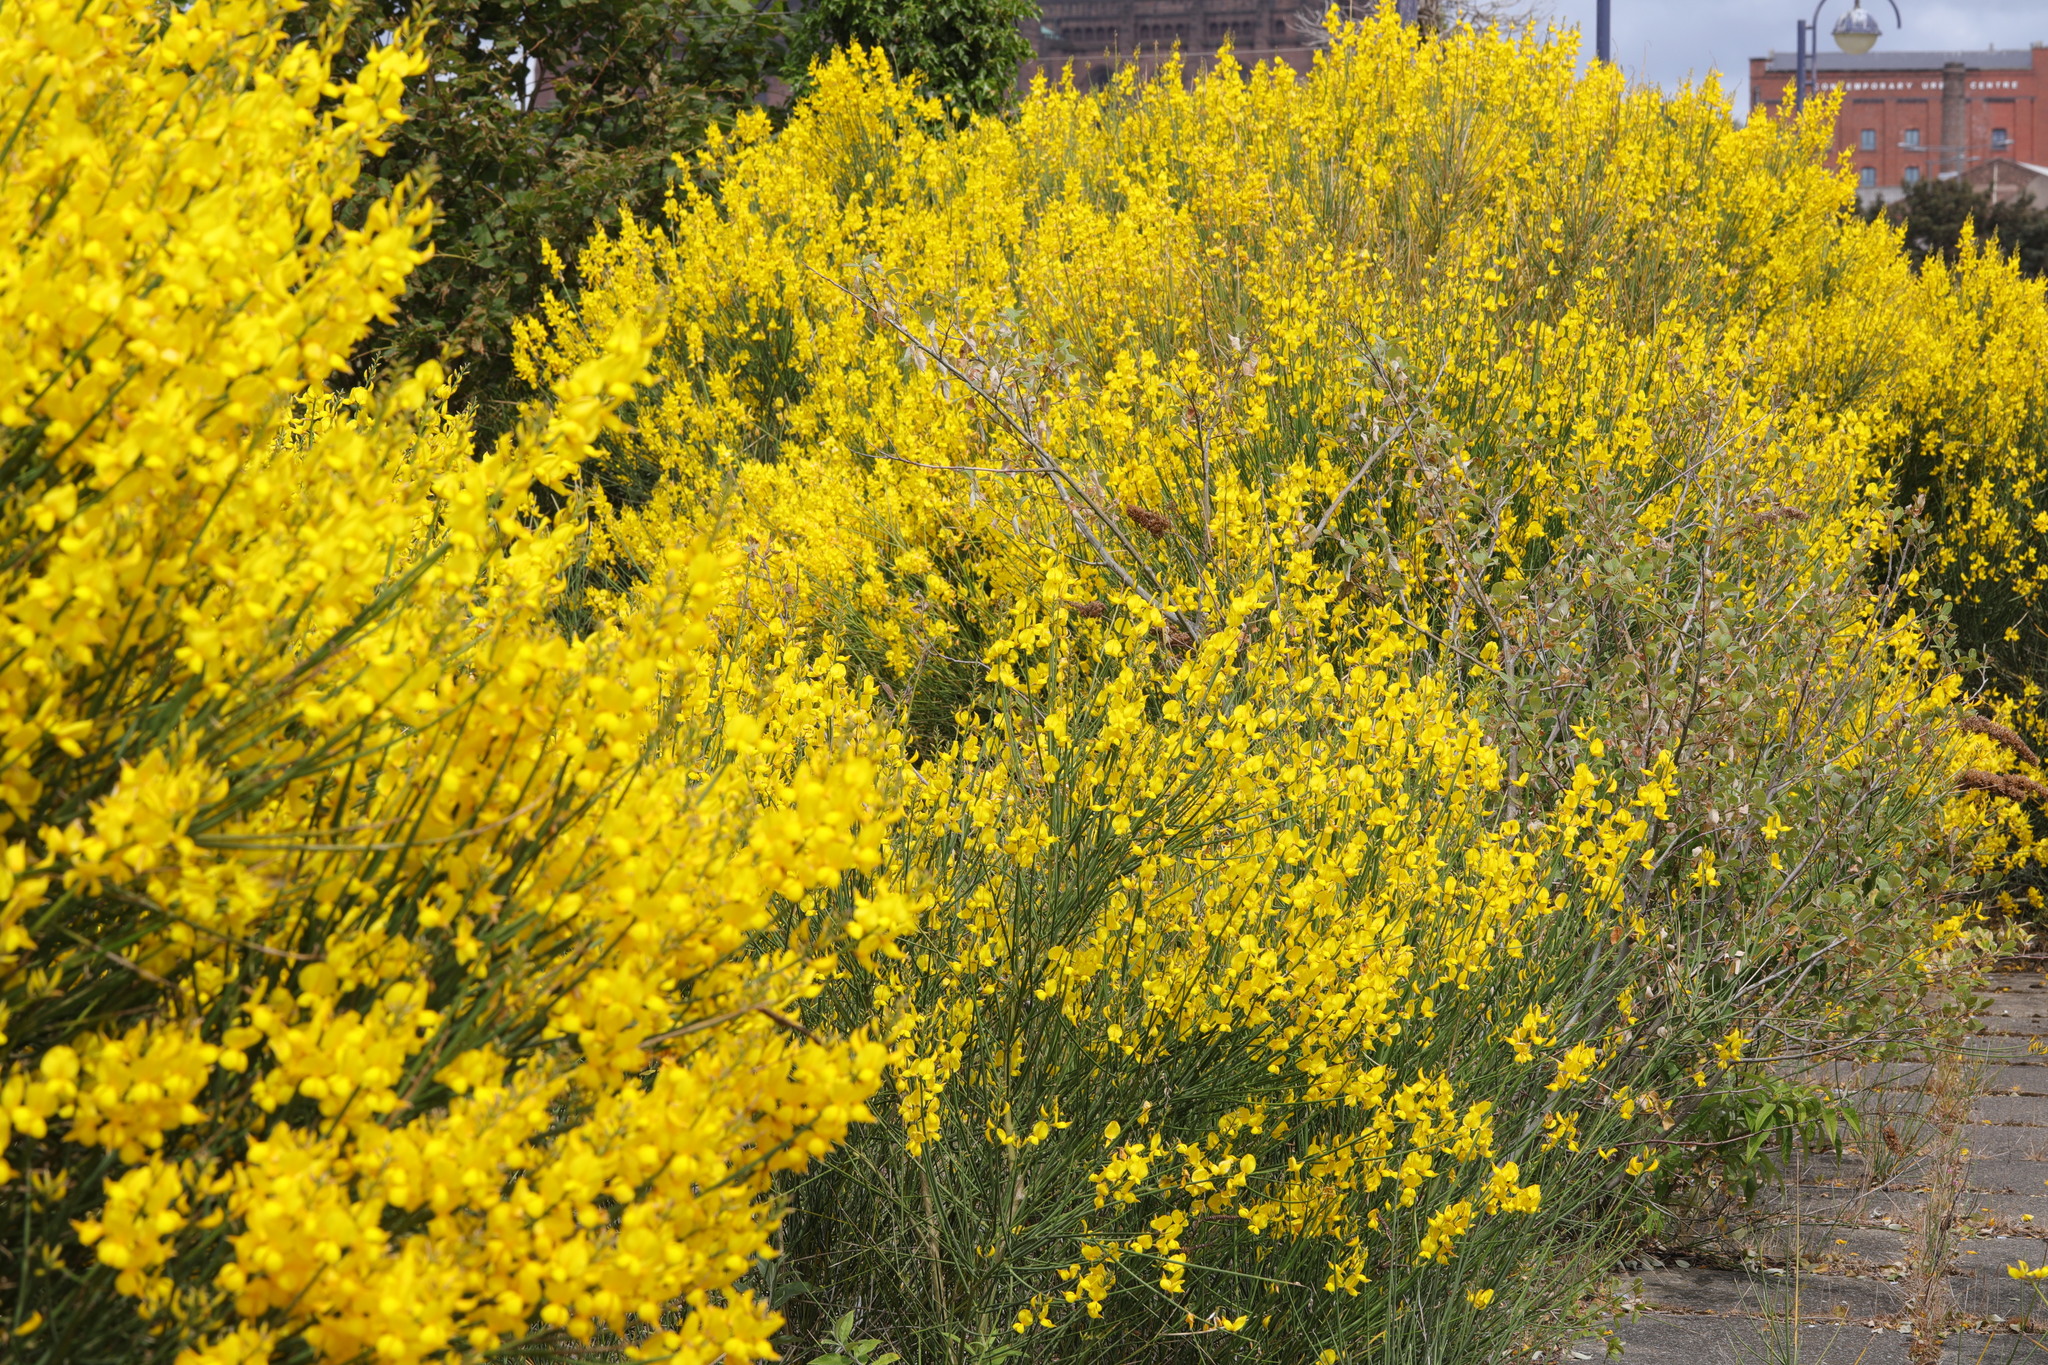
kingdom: Plantae
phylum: Tracheophyta
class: Magnoliopsida
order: Fabales
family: Fabaceae
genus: Spartium
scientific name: Spartium junceum
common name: Spanish broom
